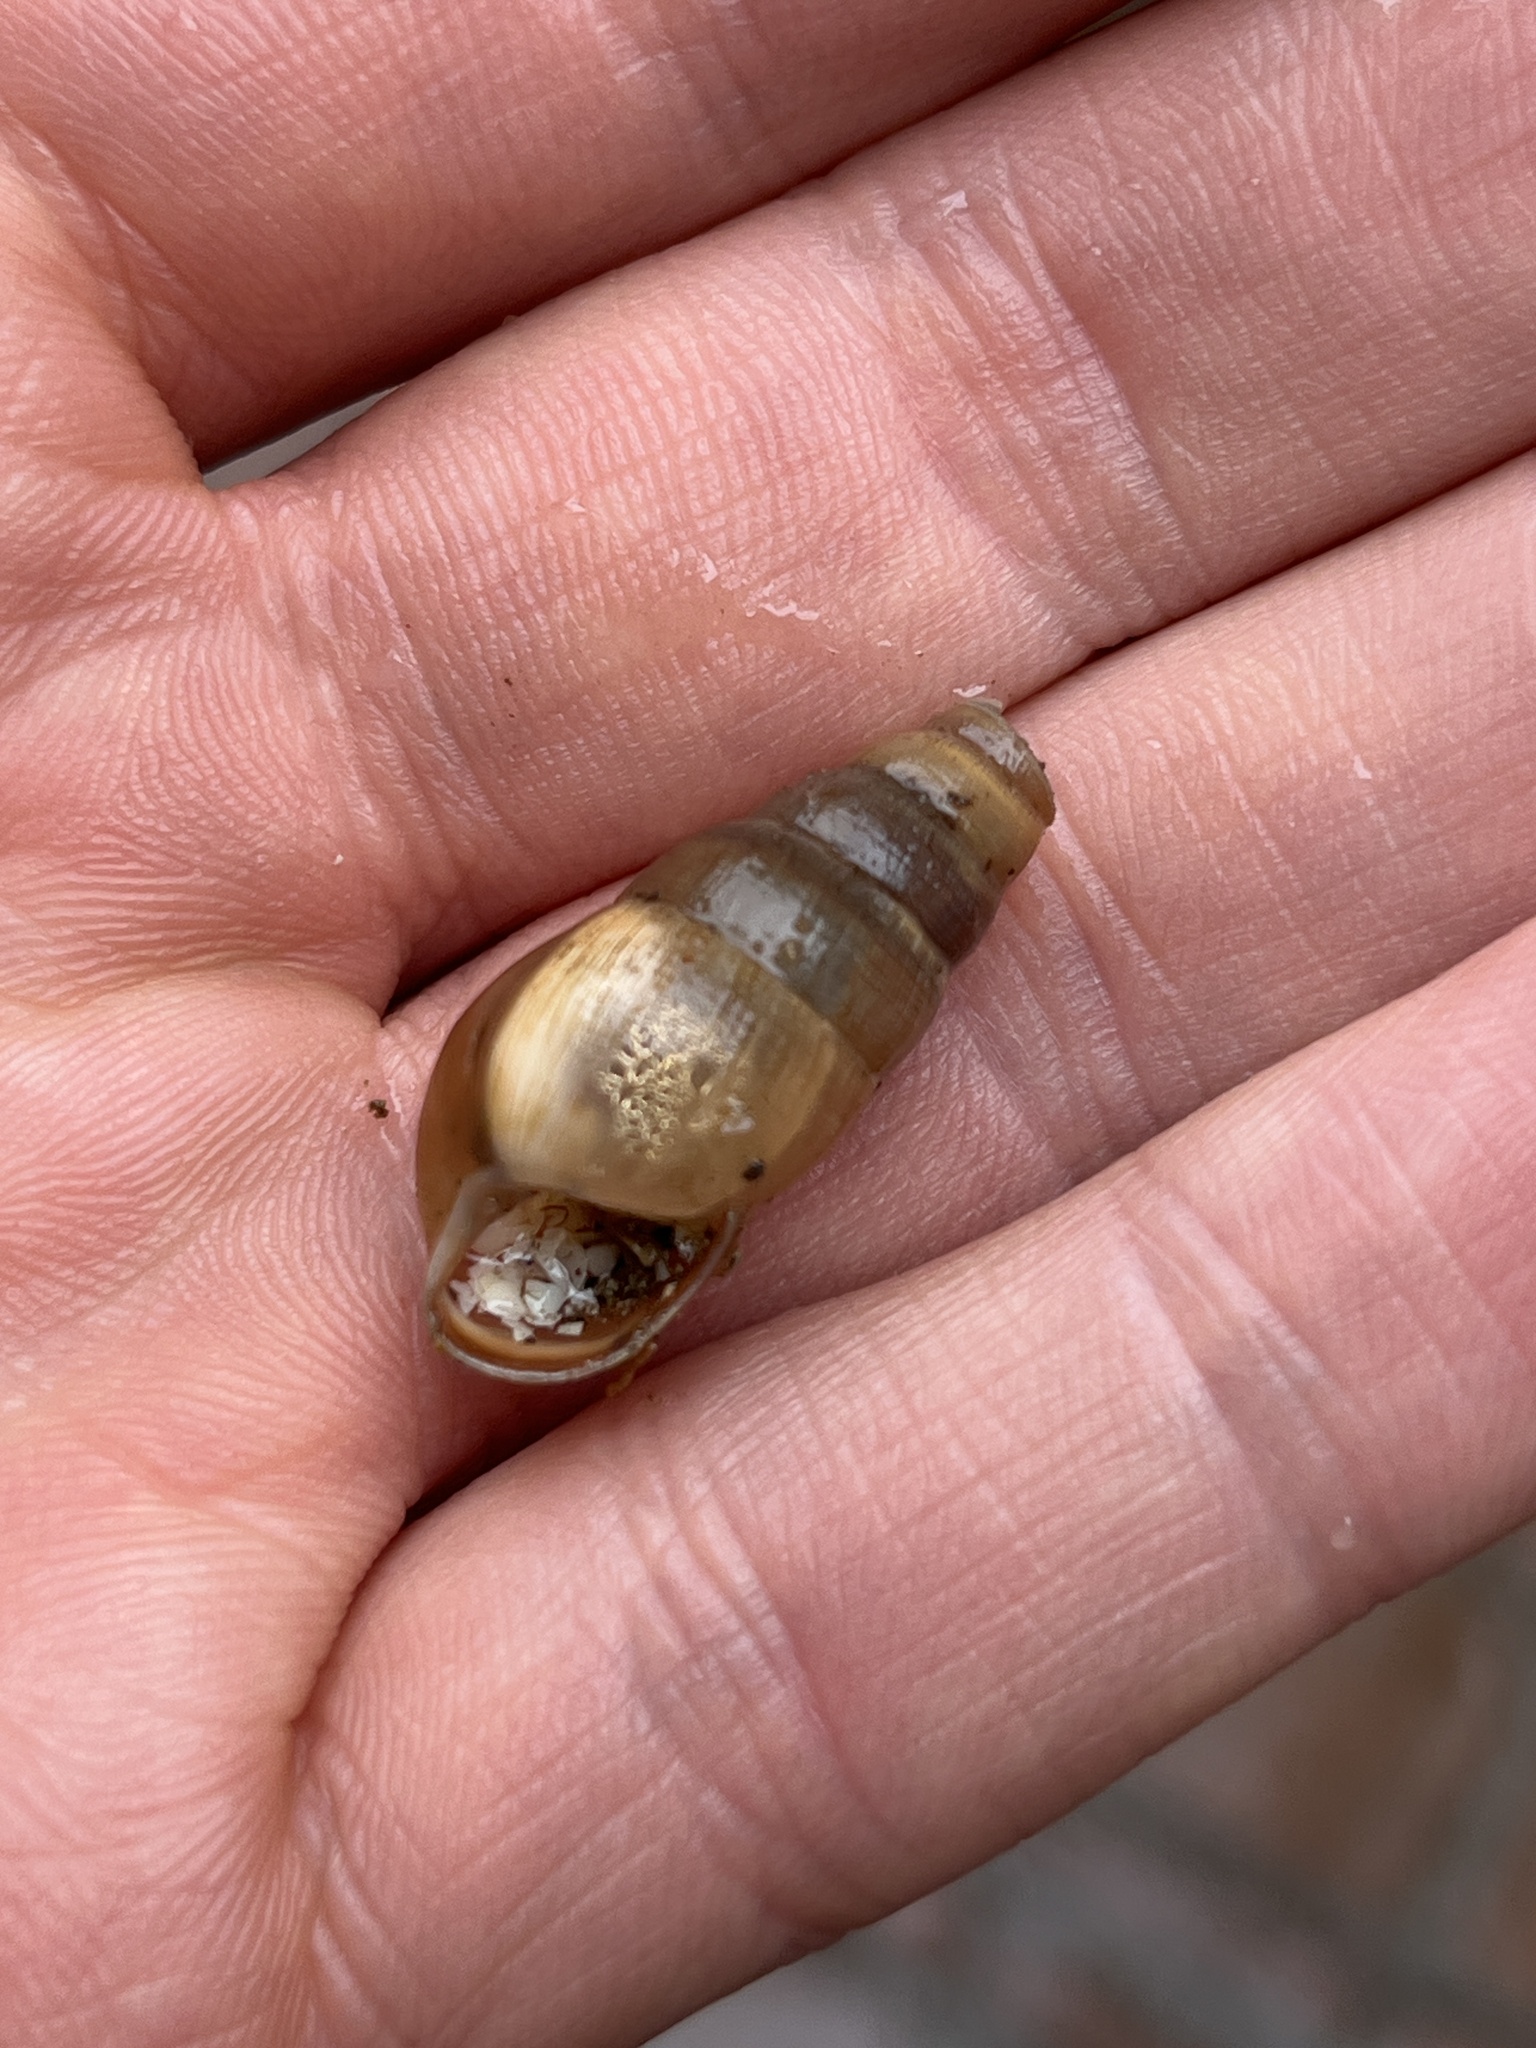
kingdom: Animalia
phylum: Mollusca
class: Gastropoda
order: Stylommatophora
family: Achatinidae
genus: Rumina
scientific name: Rumina decollata
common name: Decollate snail
